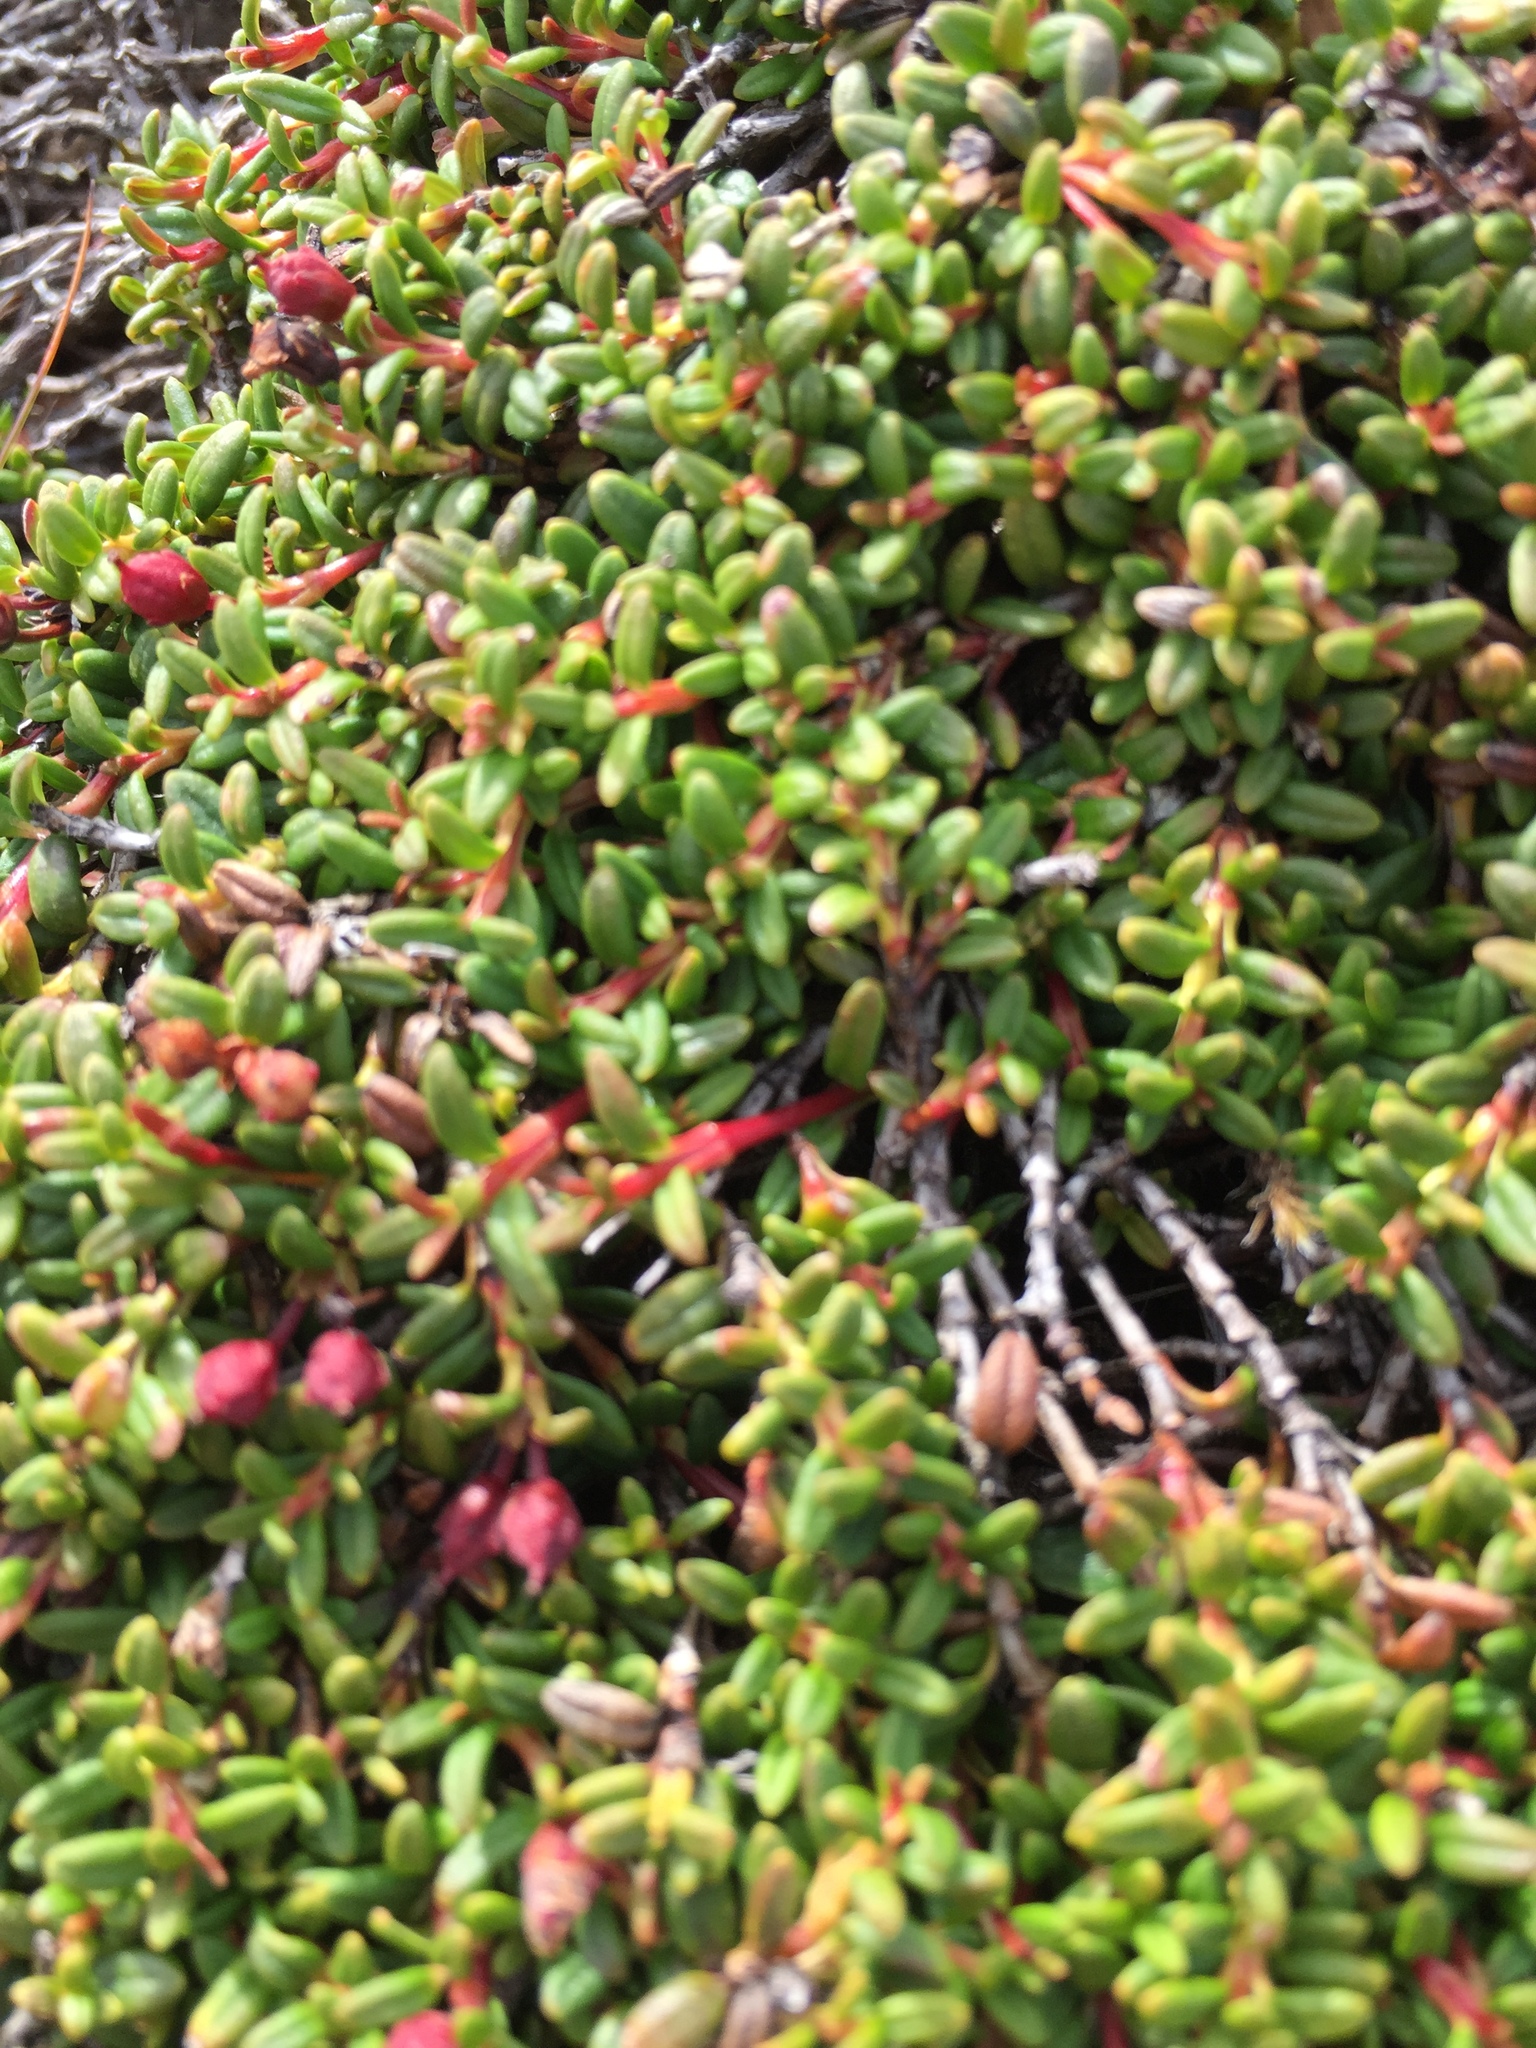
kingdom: Plantae
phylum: Tracheophyta
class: Magnoliopsida
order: Ericales
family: Ericaceae
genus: Kalmia
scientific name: Kalmia procumbens
